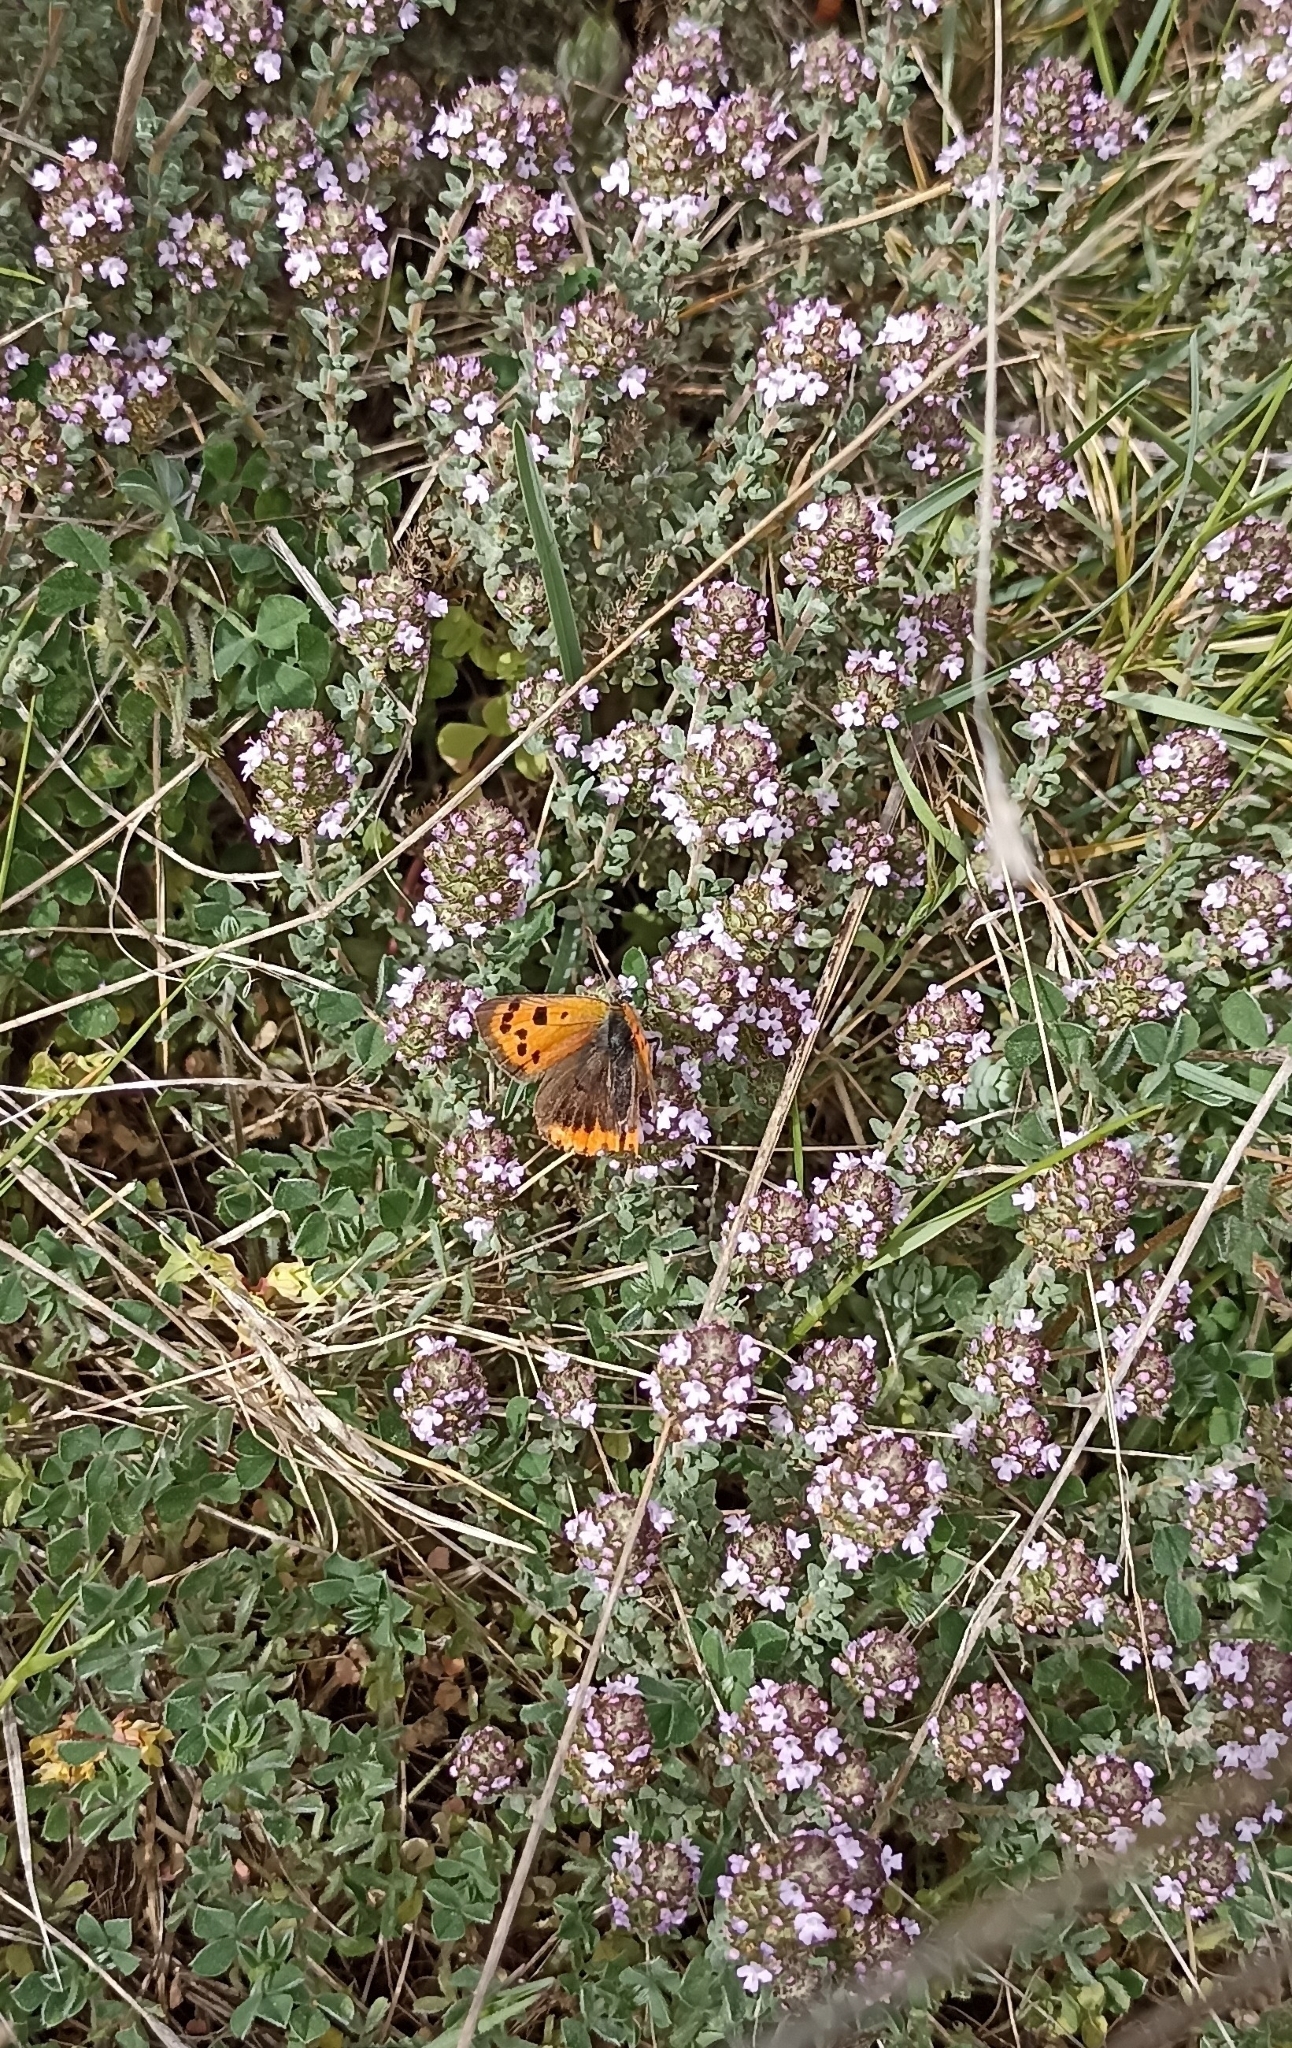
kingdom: Animalia
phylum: Arthropoda
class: Insecta
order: Lepidoptera
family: Lycaenidae
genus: Lycaena
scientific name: Lycaena phlaeas
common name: Small copper
